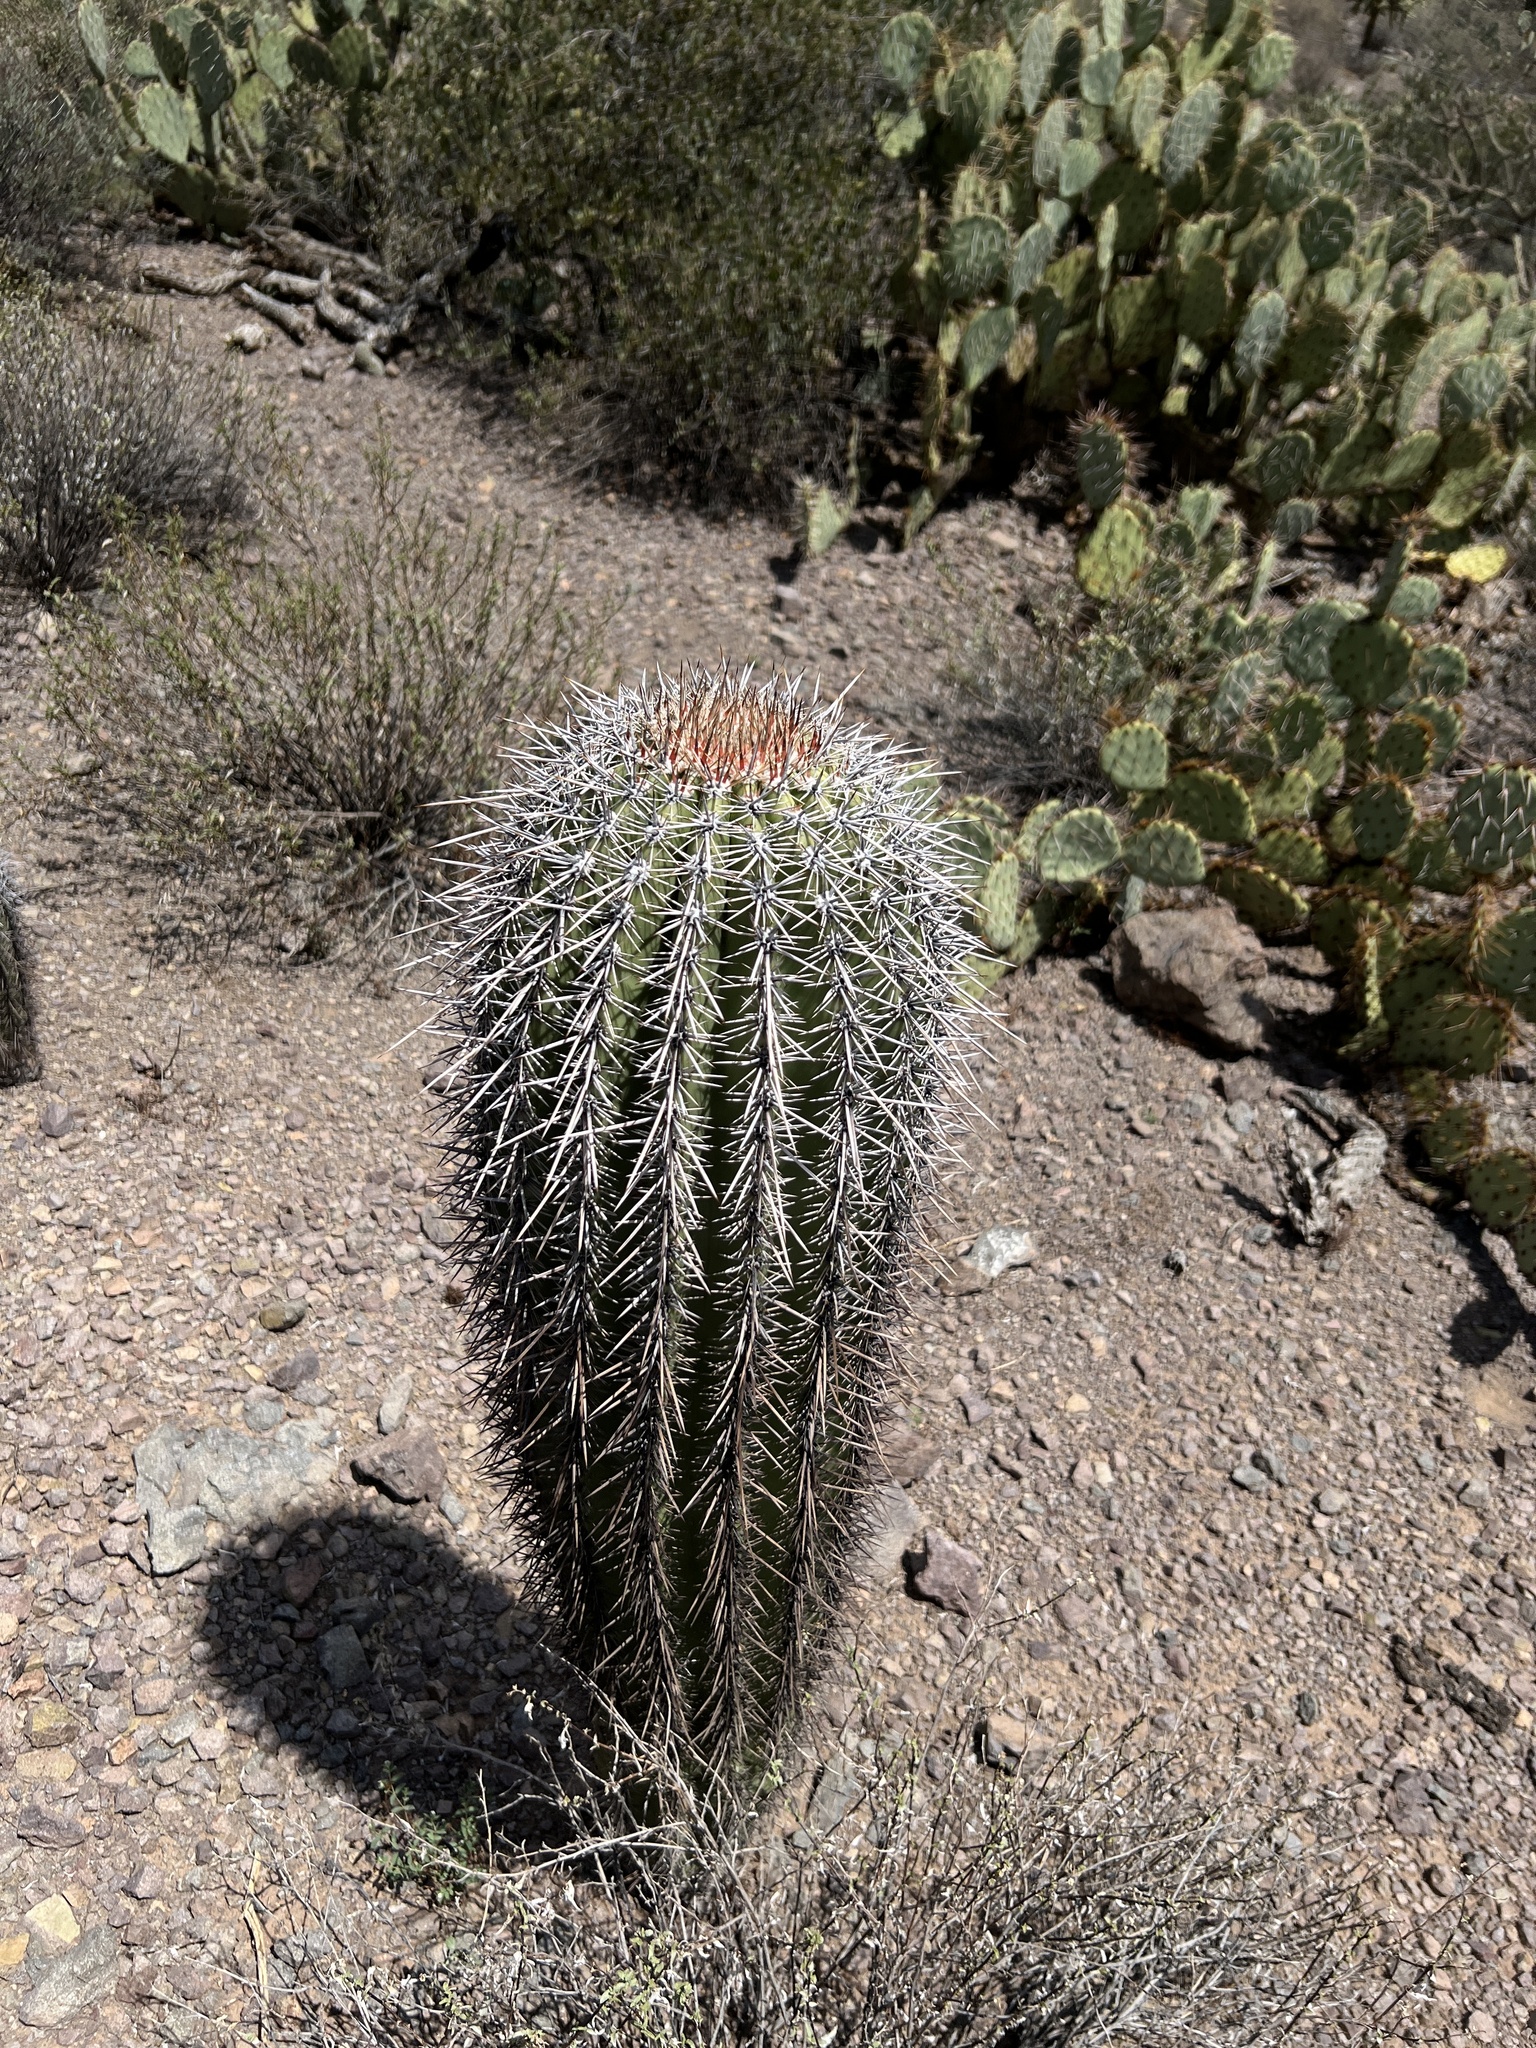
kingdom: Plantae
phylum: Tracheophyta
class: Magnoliopsida
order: Caryophyllales
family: Cactaceae
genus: Carnegiea
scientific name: Carnegiea gigantea
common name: Saguaro
